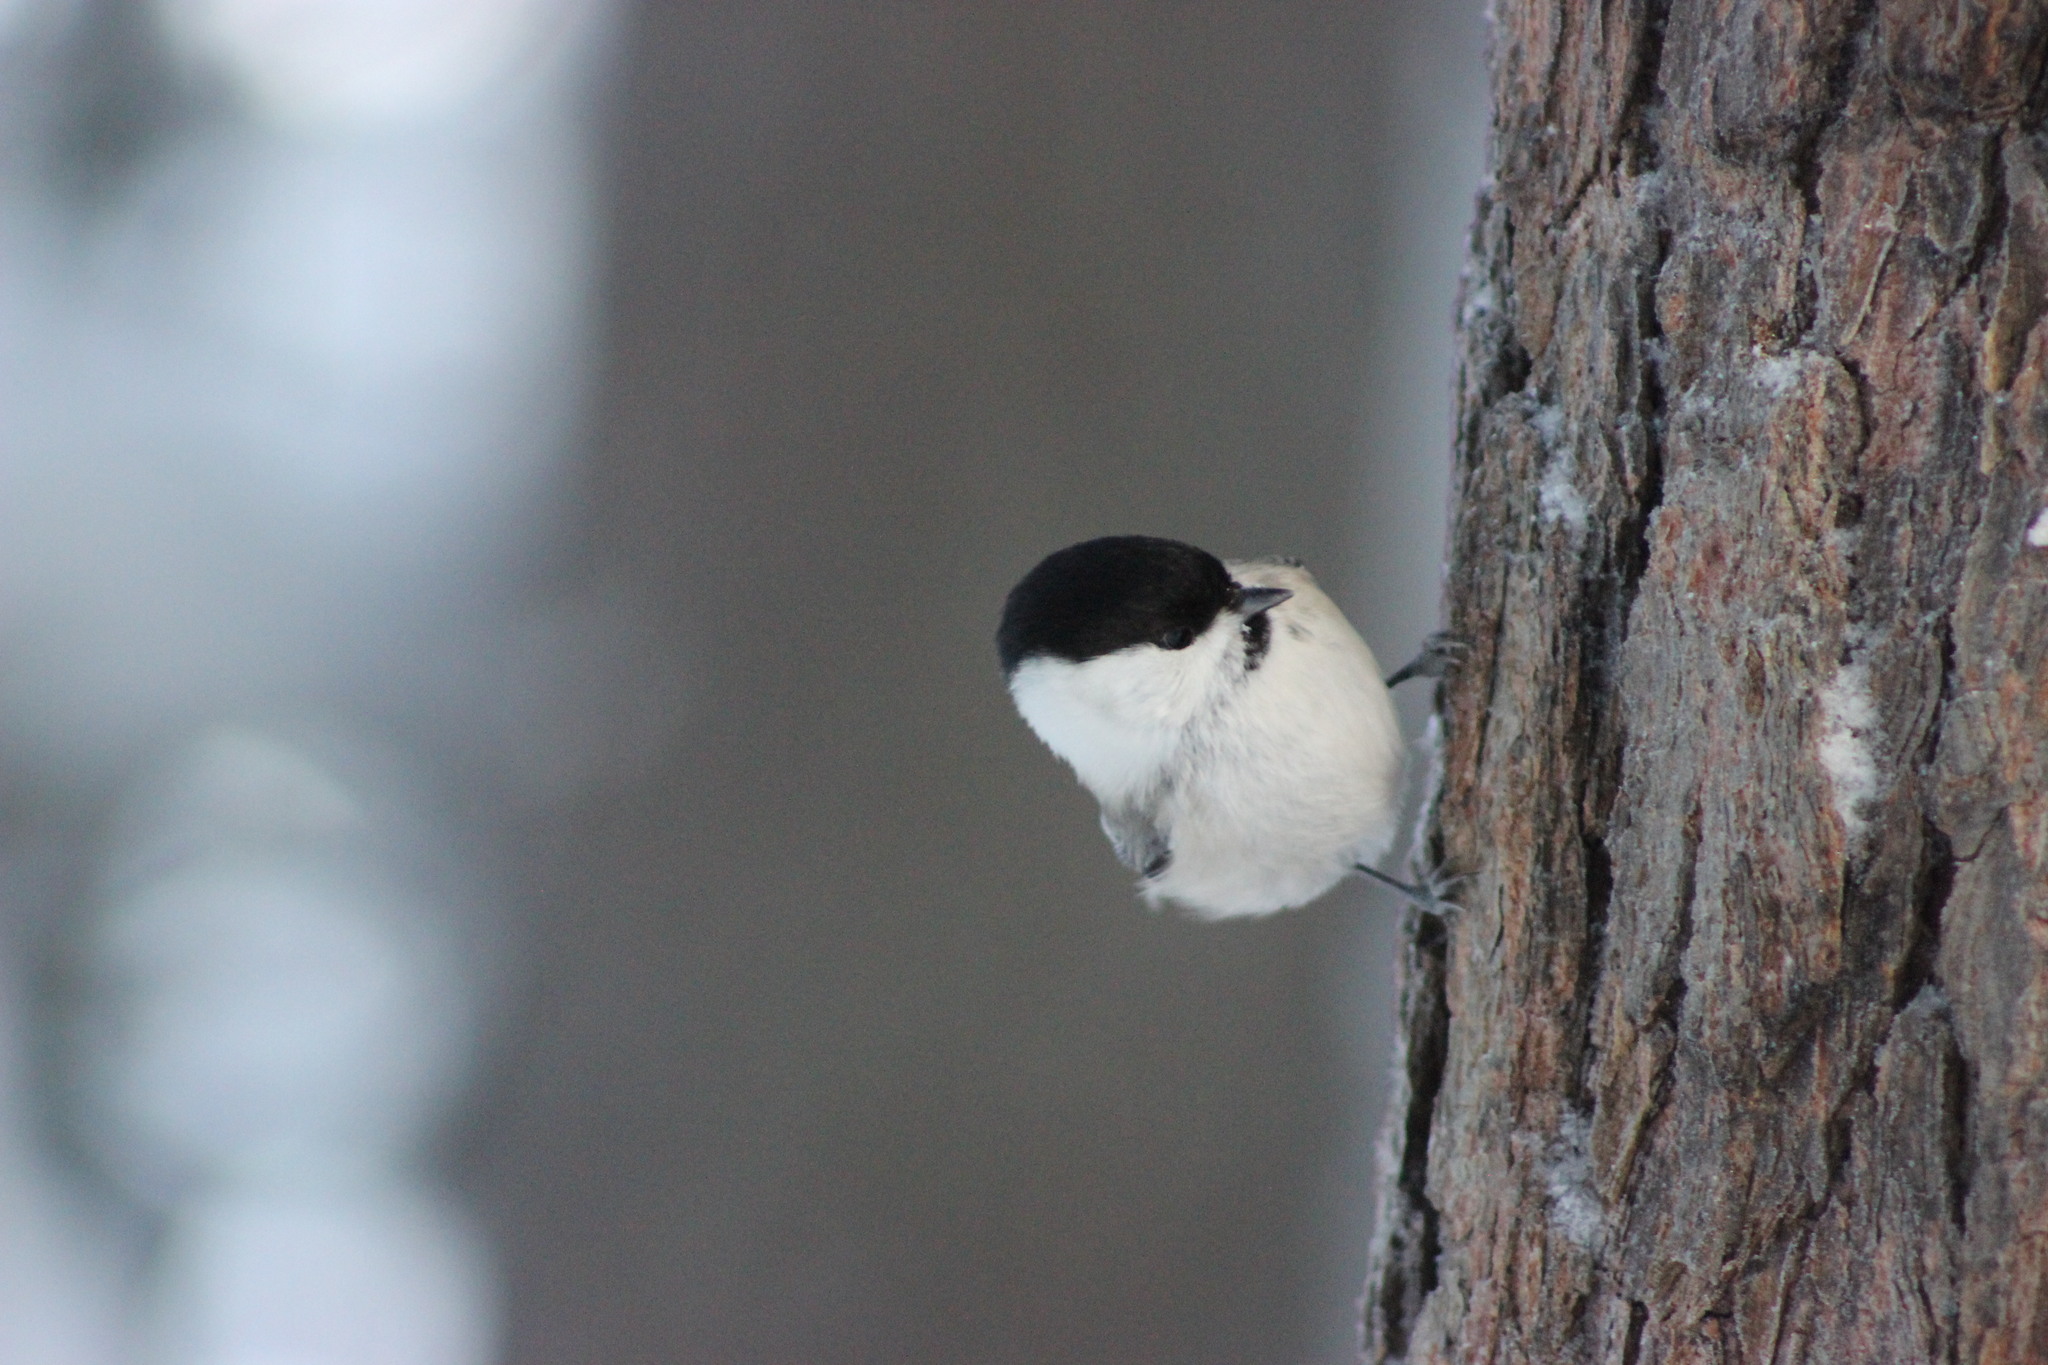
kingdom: Animalia
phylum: Chordata
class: Aves
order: Passeriformes
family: Paridae
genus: Poecile
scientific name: Poecile montanus
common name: Willow tit
